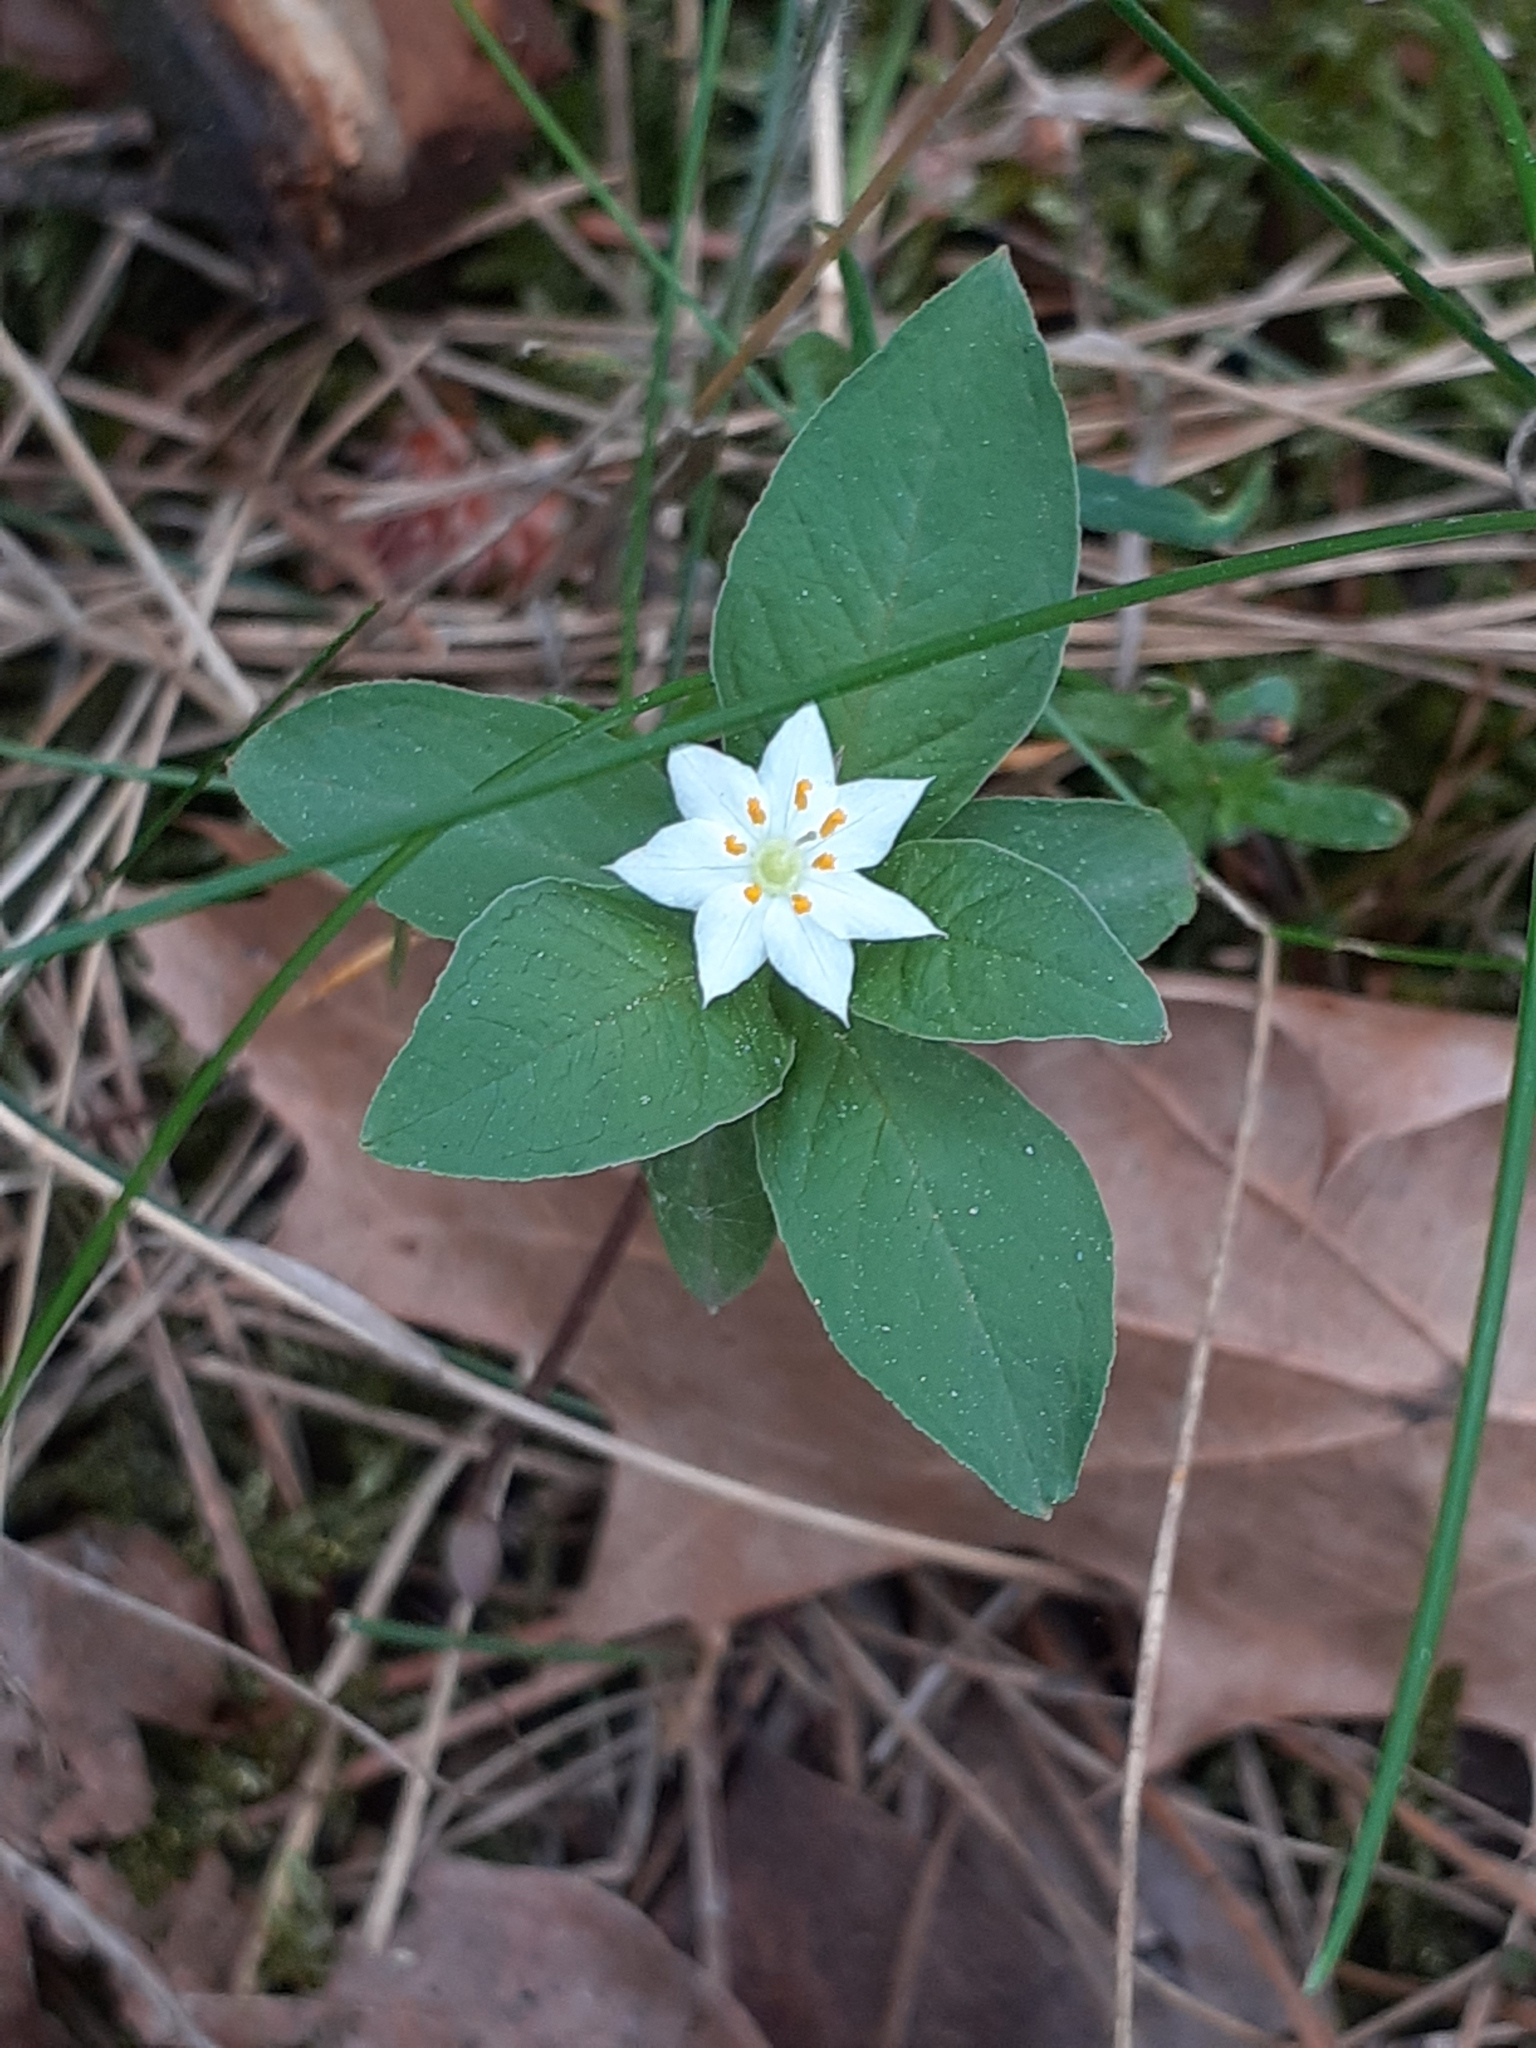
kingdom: Plantae
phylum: Tracheophyta
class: Magnoliopsida
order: Ericales
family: Primulaceae
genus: Lysimachia
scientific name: Lysimachia europaea
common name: Arctic starflower
